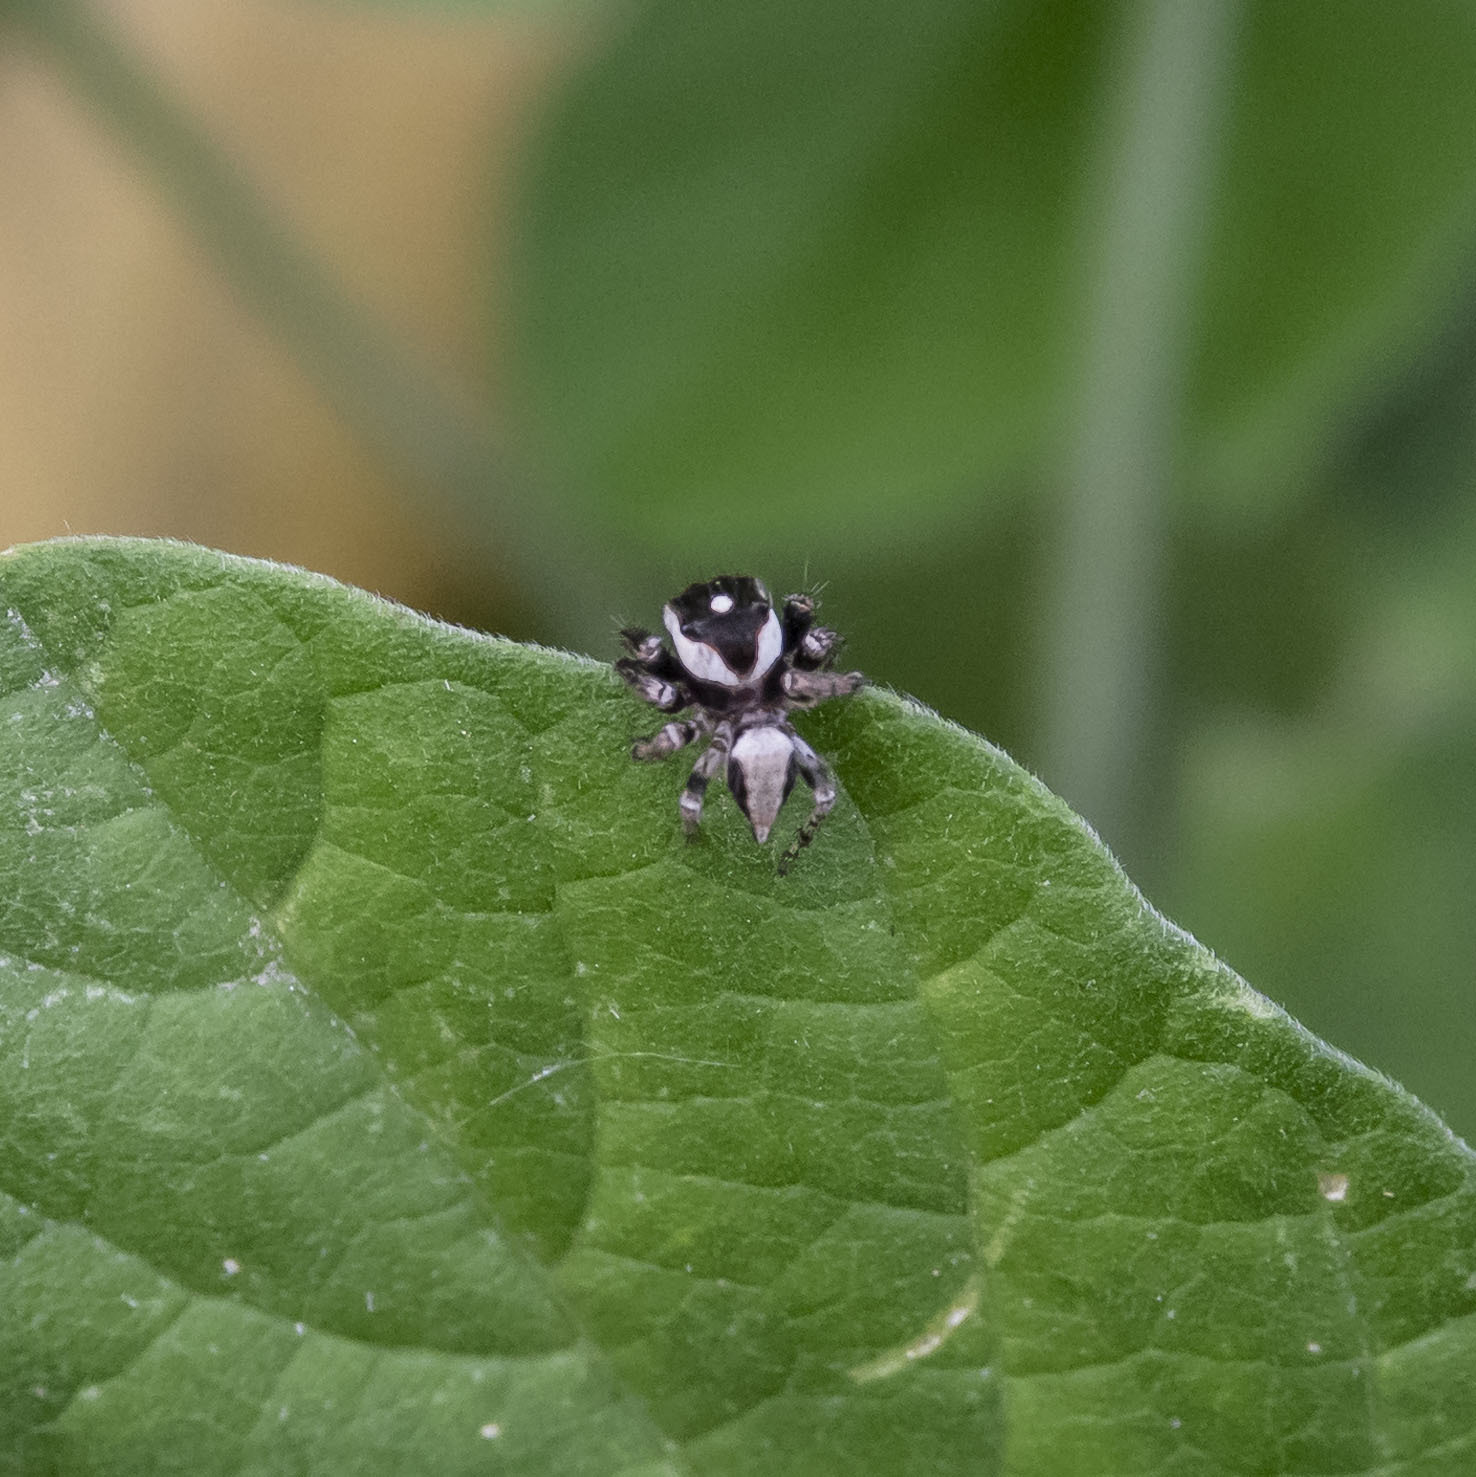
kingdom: Animalia
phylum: Arthropoda
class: Arachnida
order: Araneae
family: Salticidae
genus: Hyllus
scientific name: Hyllus manu
